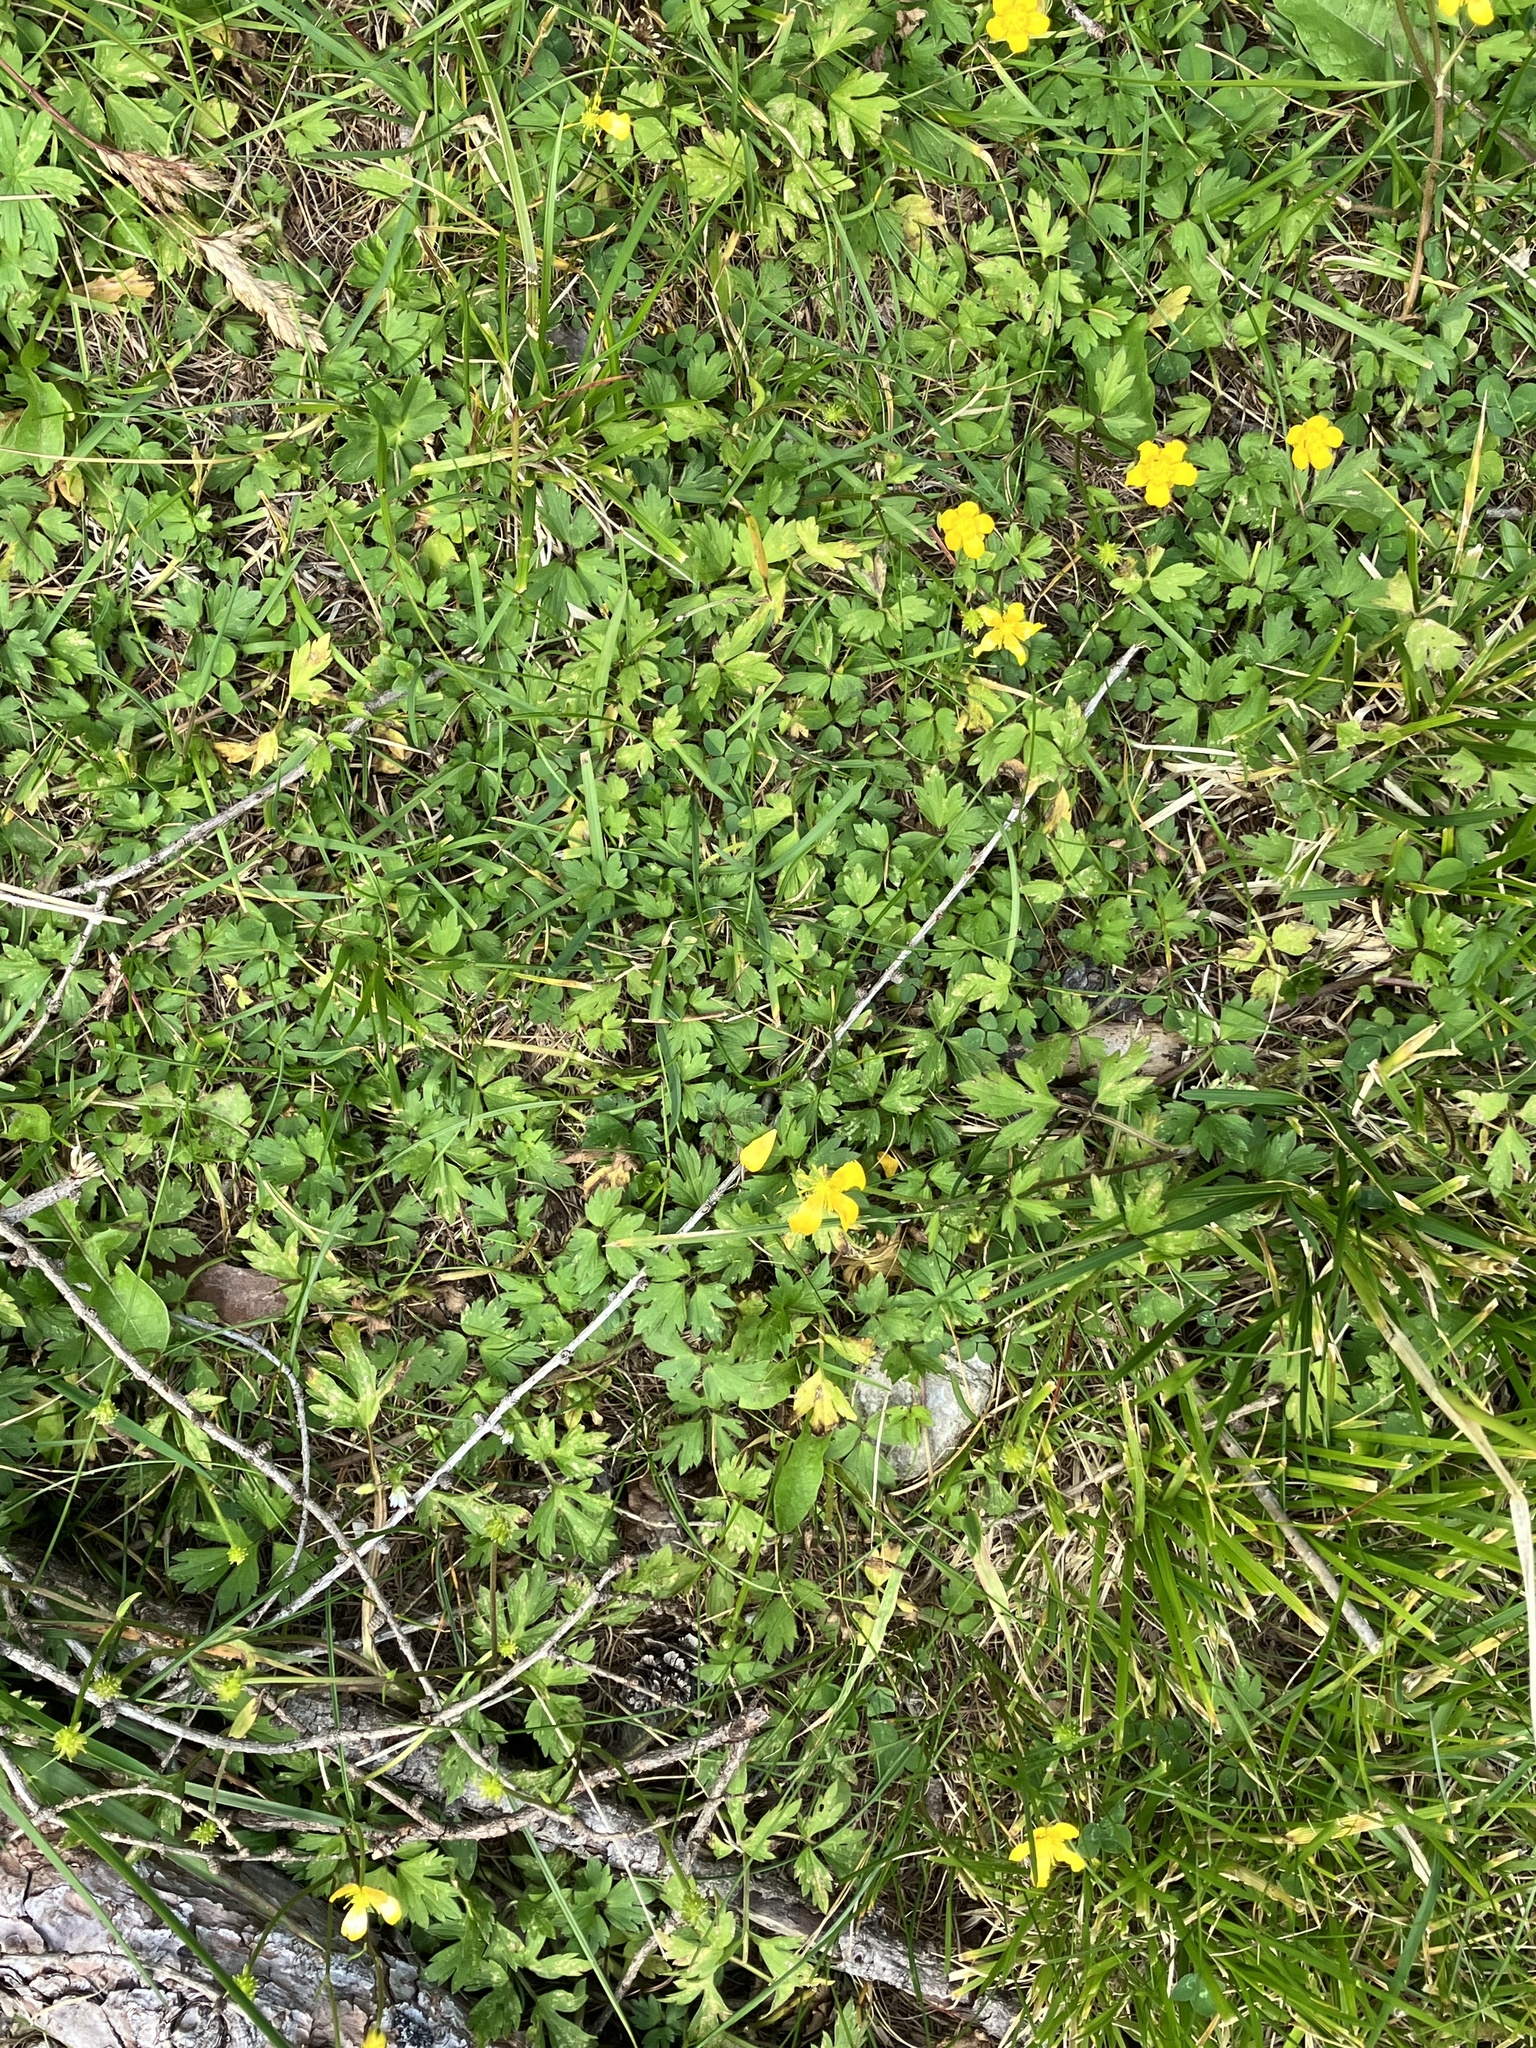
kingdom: Plantae
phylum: Tracheophyta
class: Magnoliopsida
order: Ranunculales
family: Ranunculaceae
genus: Ranunculus
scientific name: Ranunculus repens
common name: Creeping buttercup
